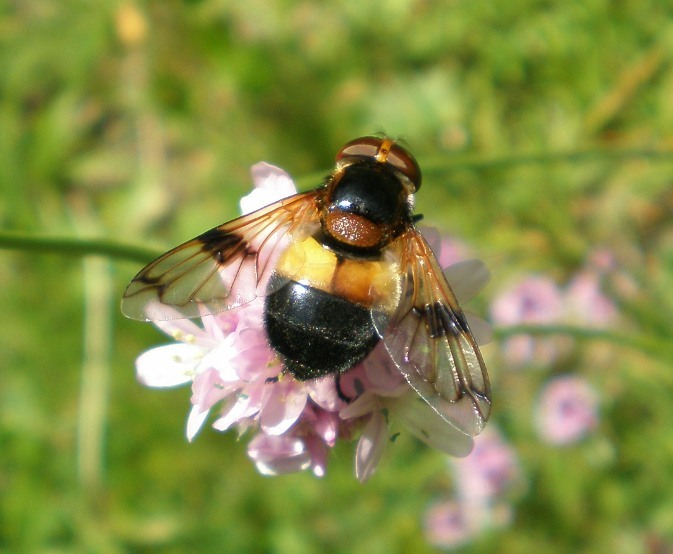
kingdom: Animalia
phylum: Arthropoda
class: Insecta
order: Diptera
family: Syrphidae
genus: Volucella
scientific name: Volucella pellucens
